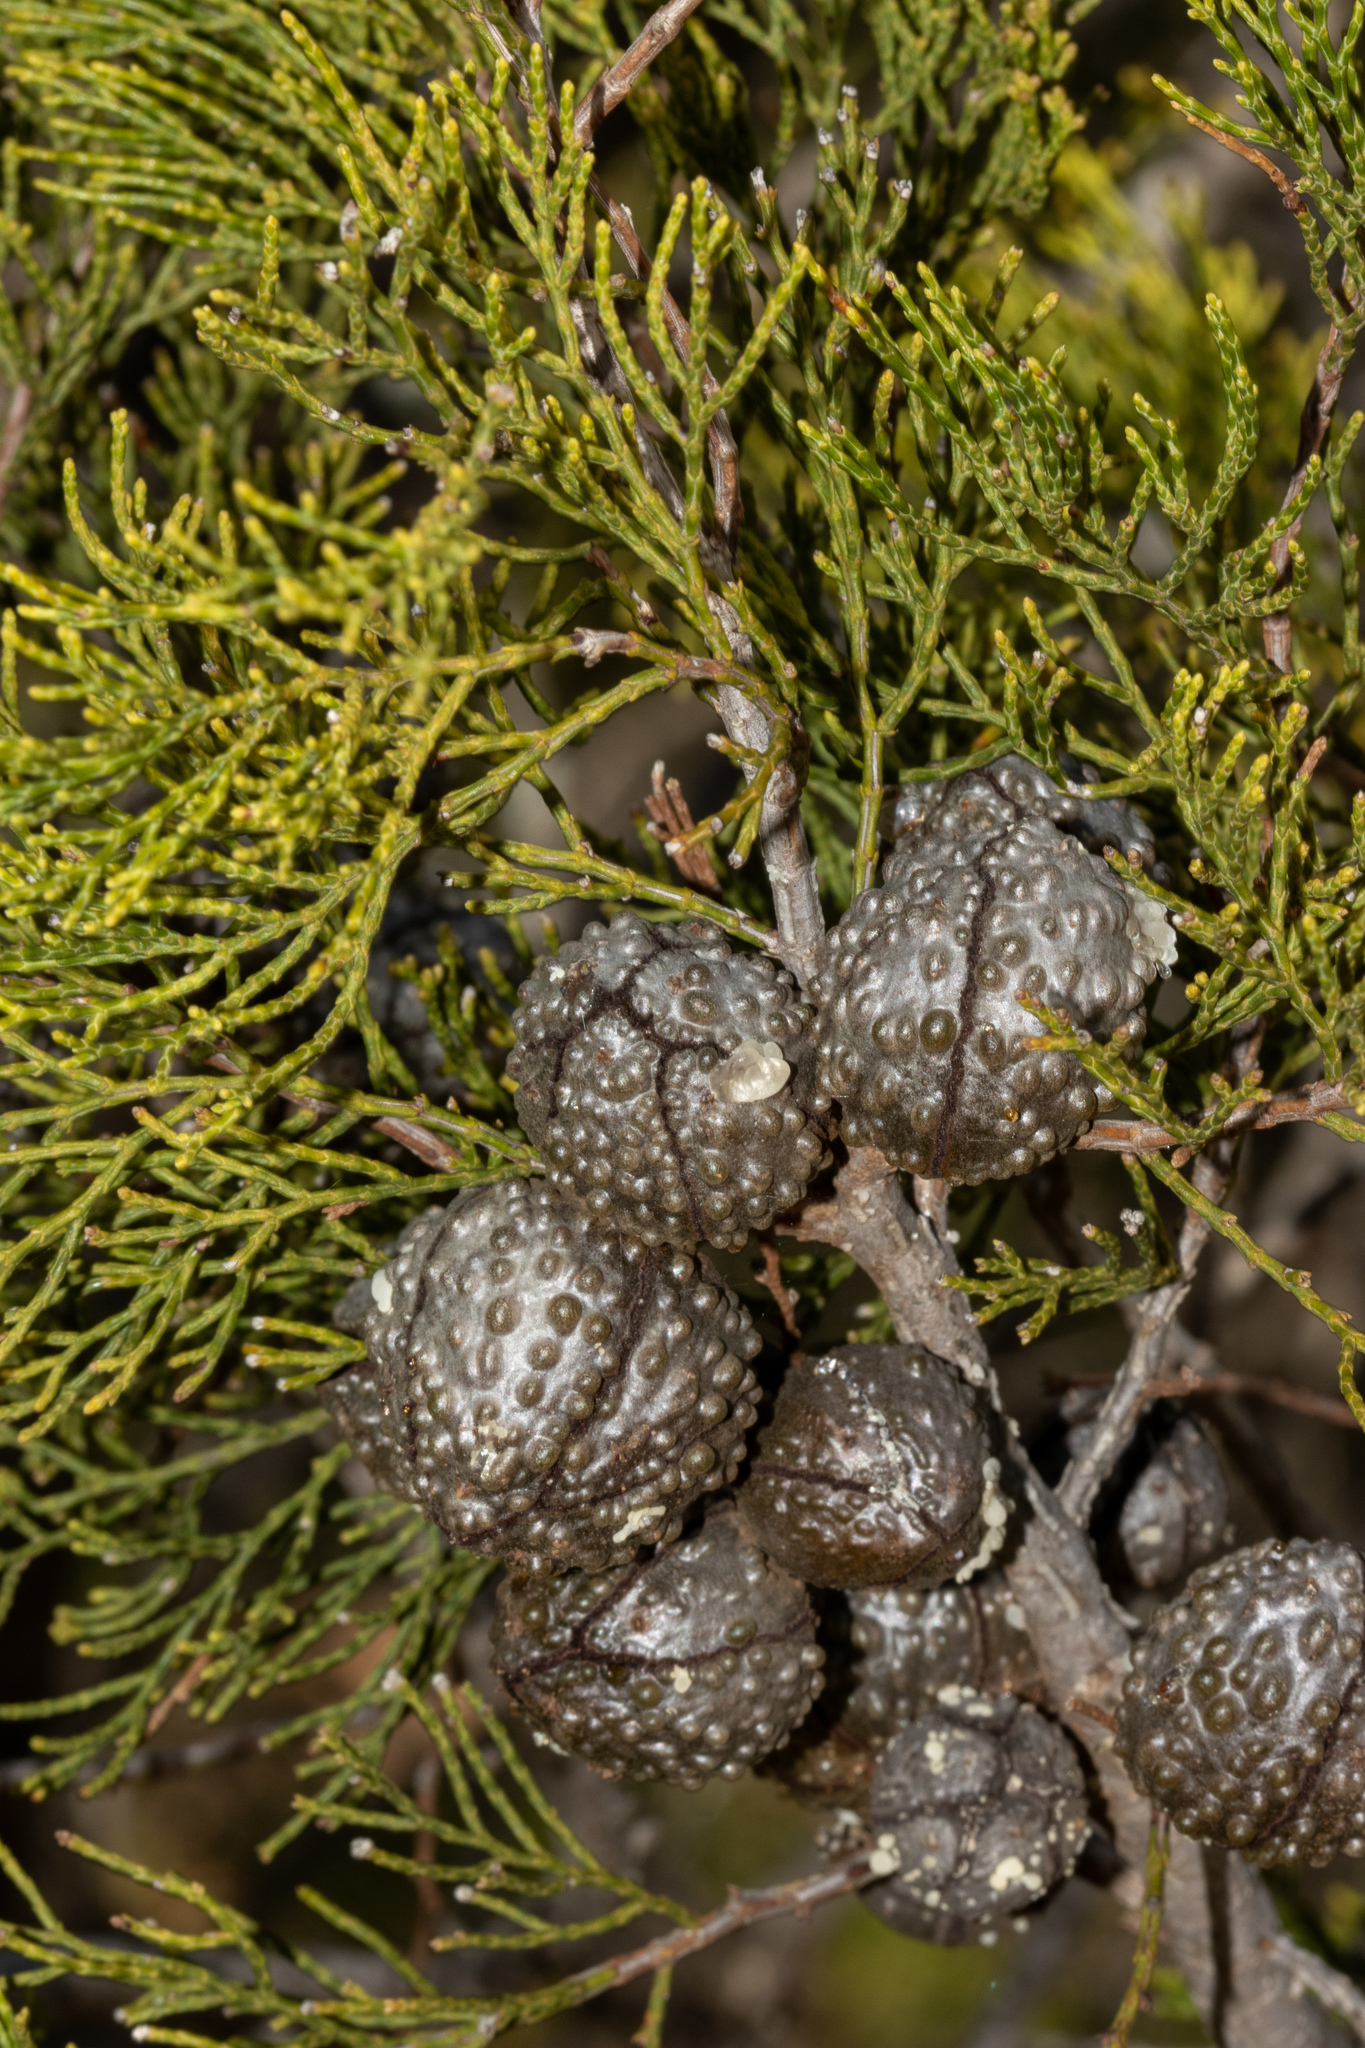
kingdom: Plantae
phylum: Tracheophyta
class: Pinopsida
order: Pinales
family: Cupressaceae
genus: Callitris
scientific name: Callitris verrucosa
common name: Scrub cypress-pine
